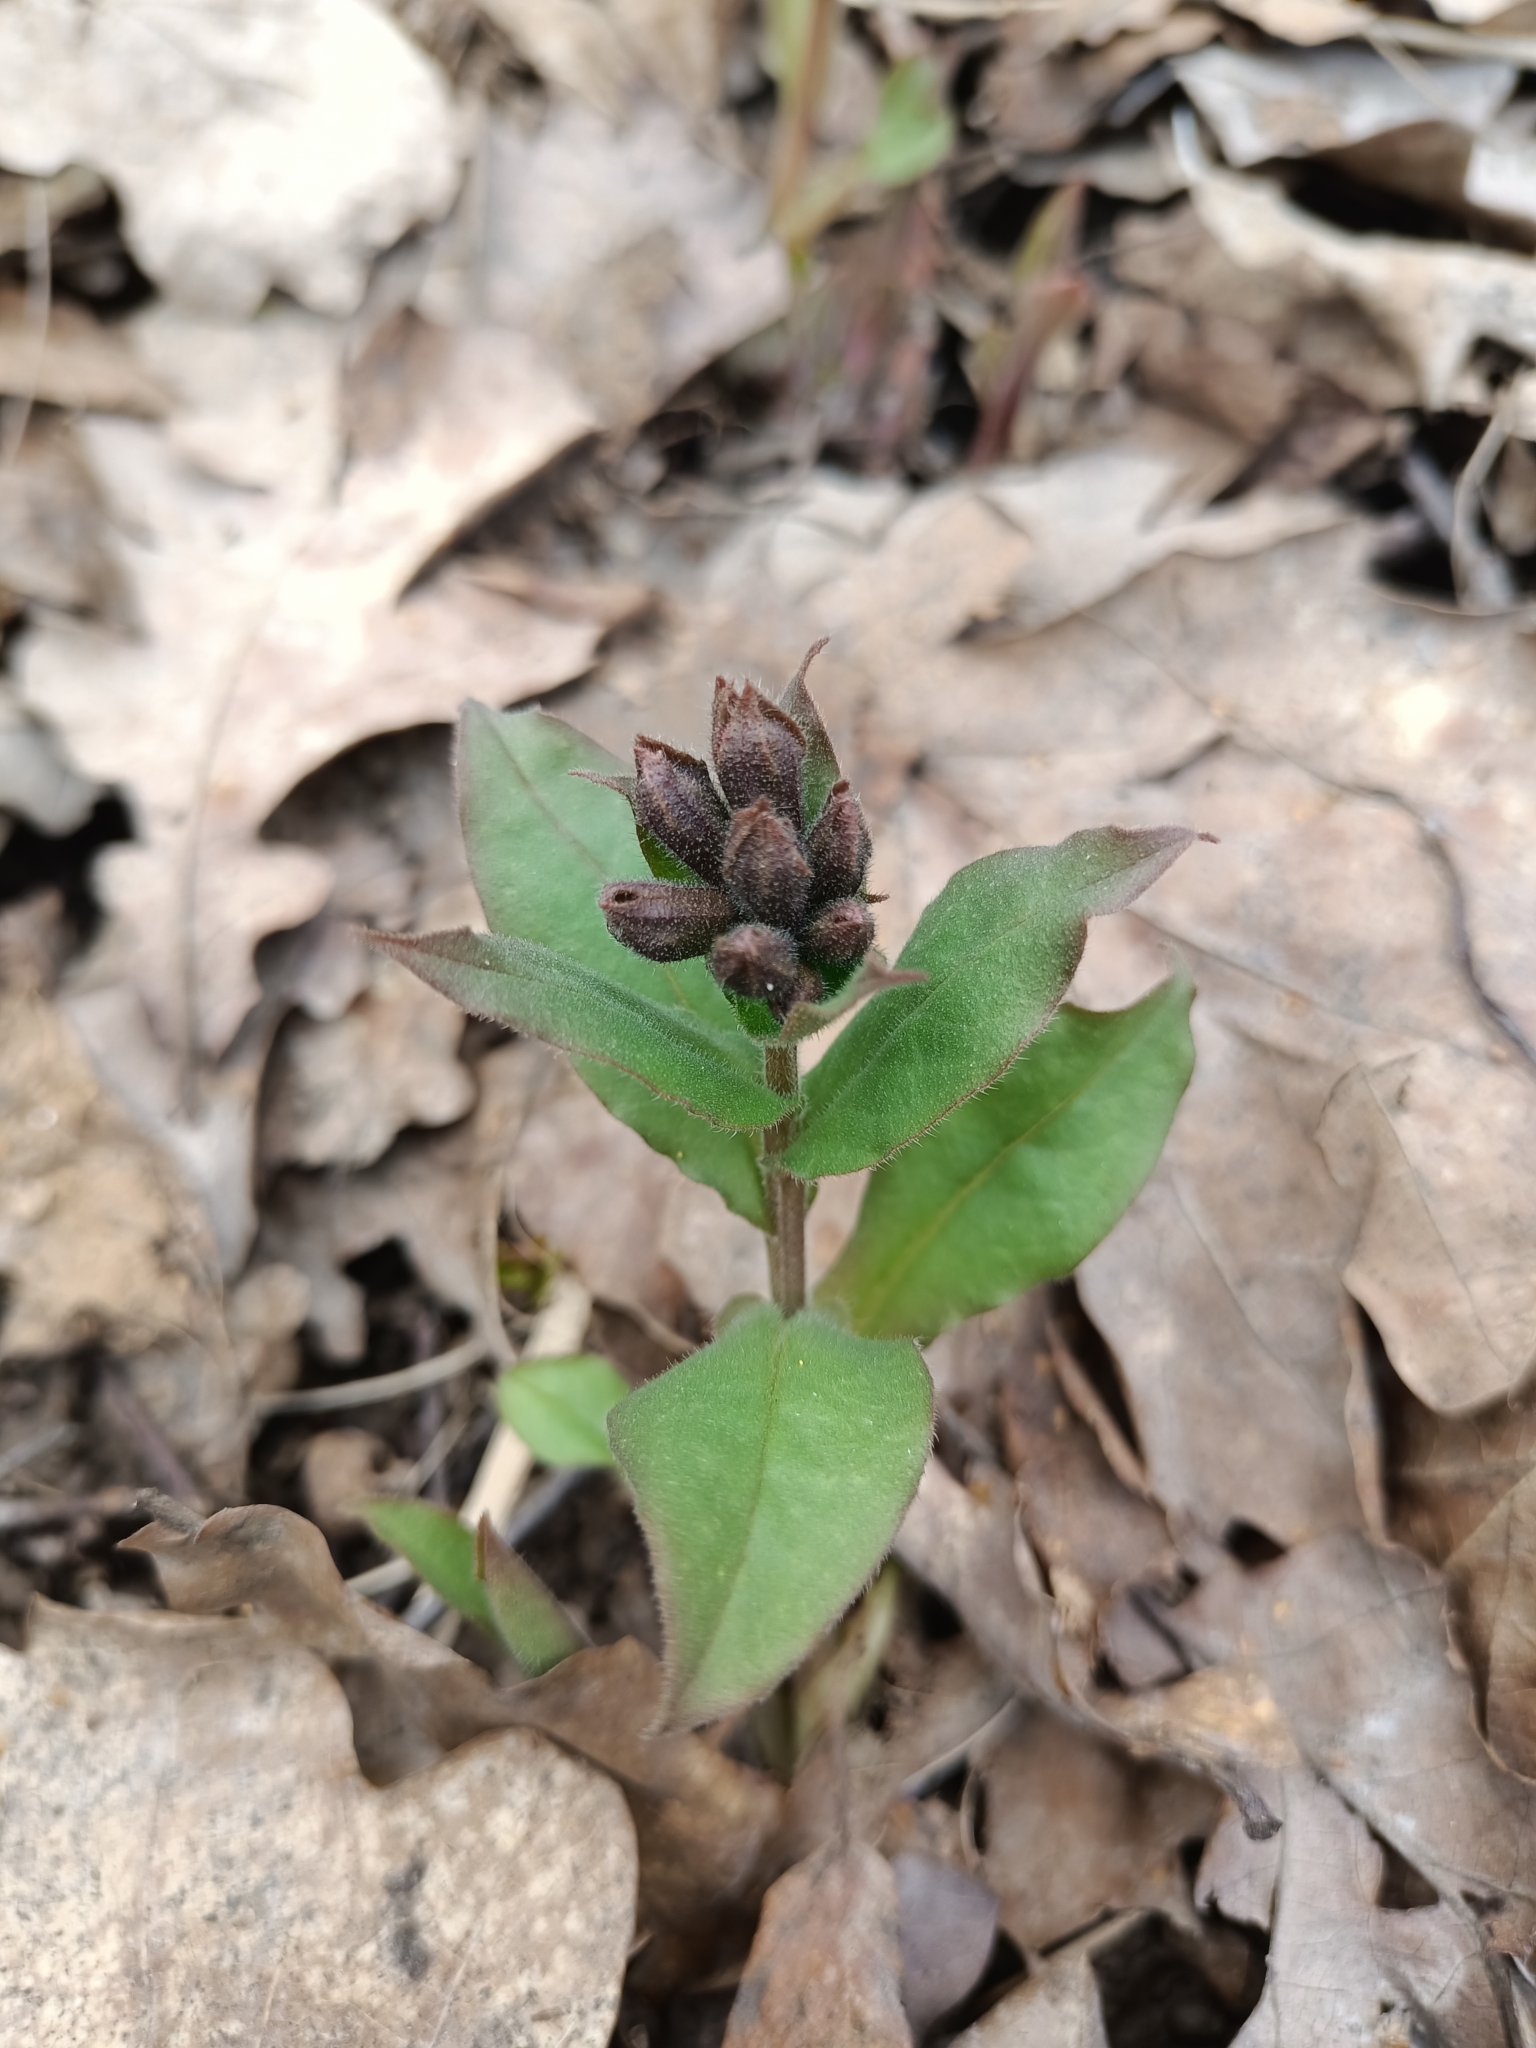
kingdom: Plantae
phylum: Tracheophyta
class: Magnoliopsida
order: Boraginales
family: Boraginaceae
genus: Pulmonaria
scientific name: Pulmonaria obscura
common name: Suffolk lungwort
